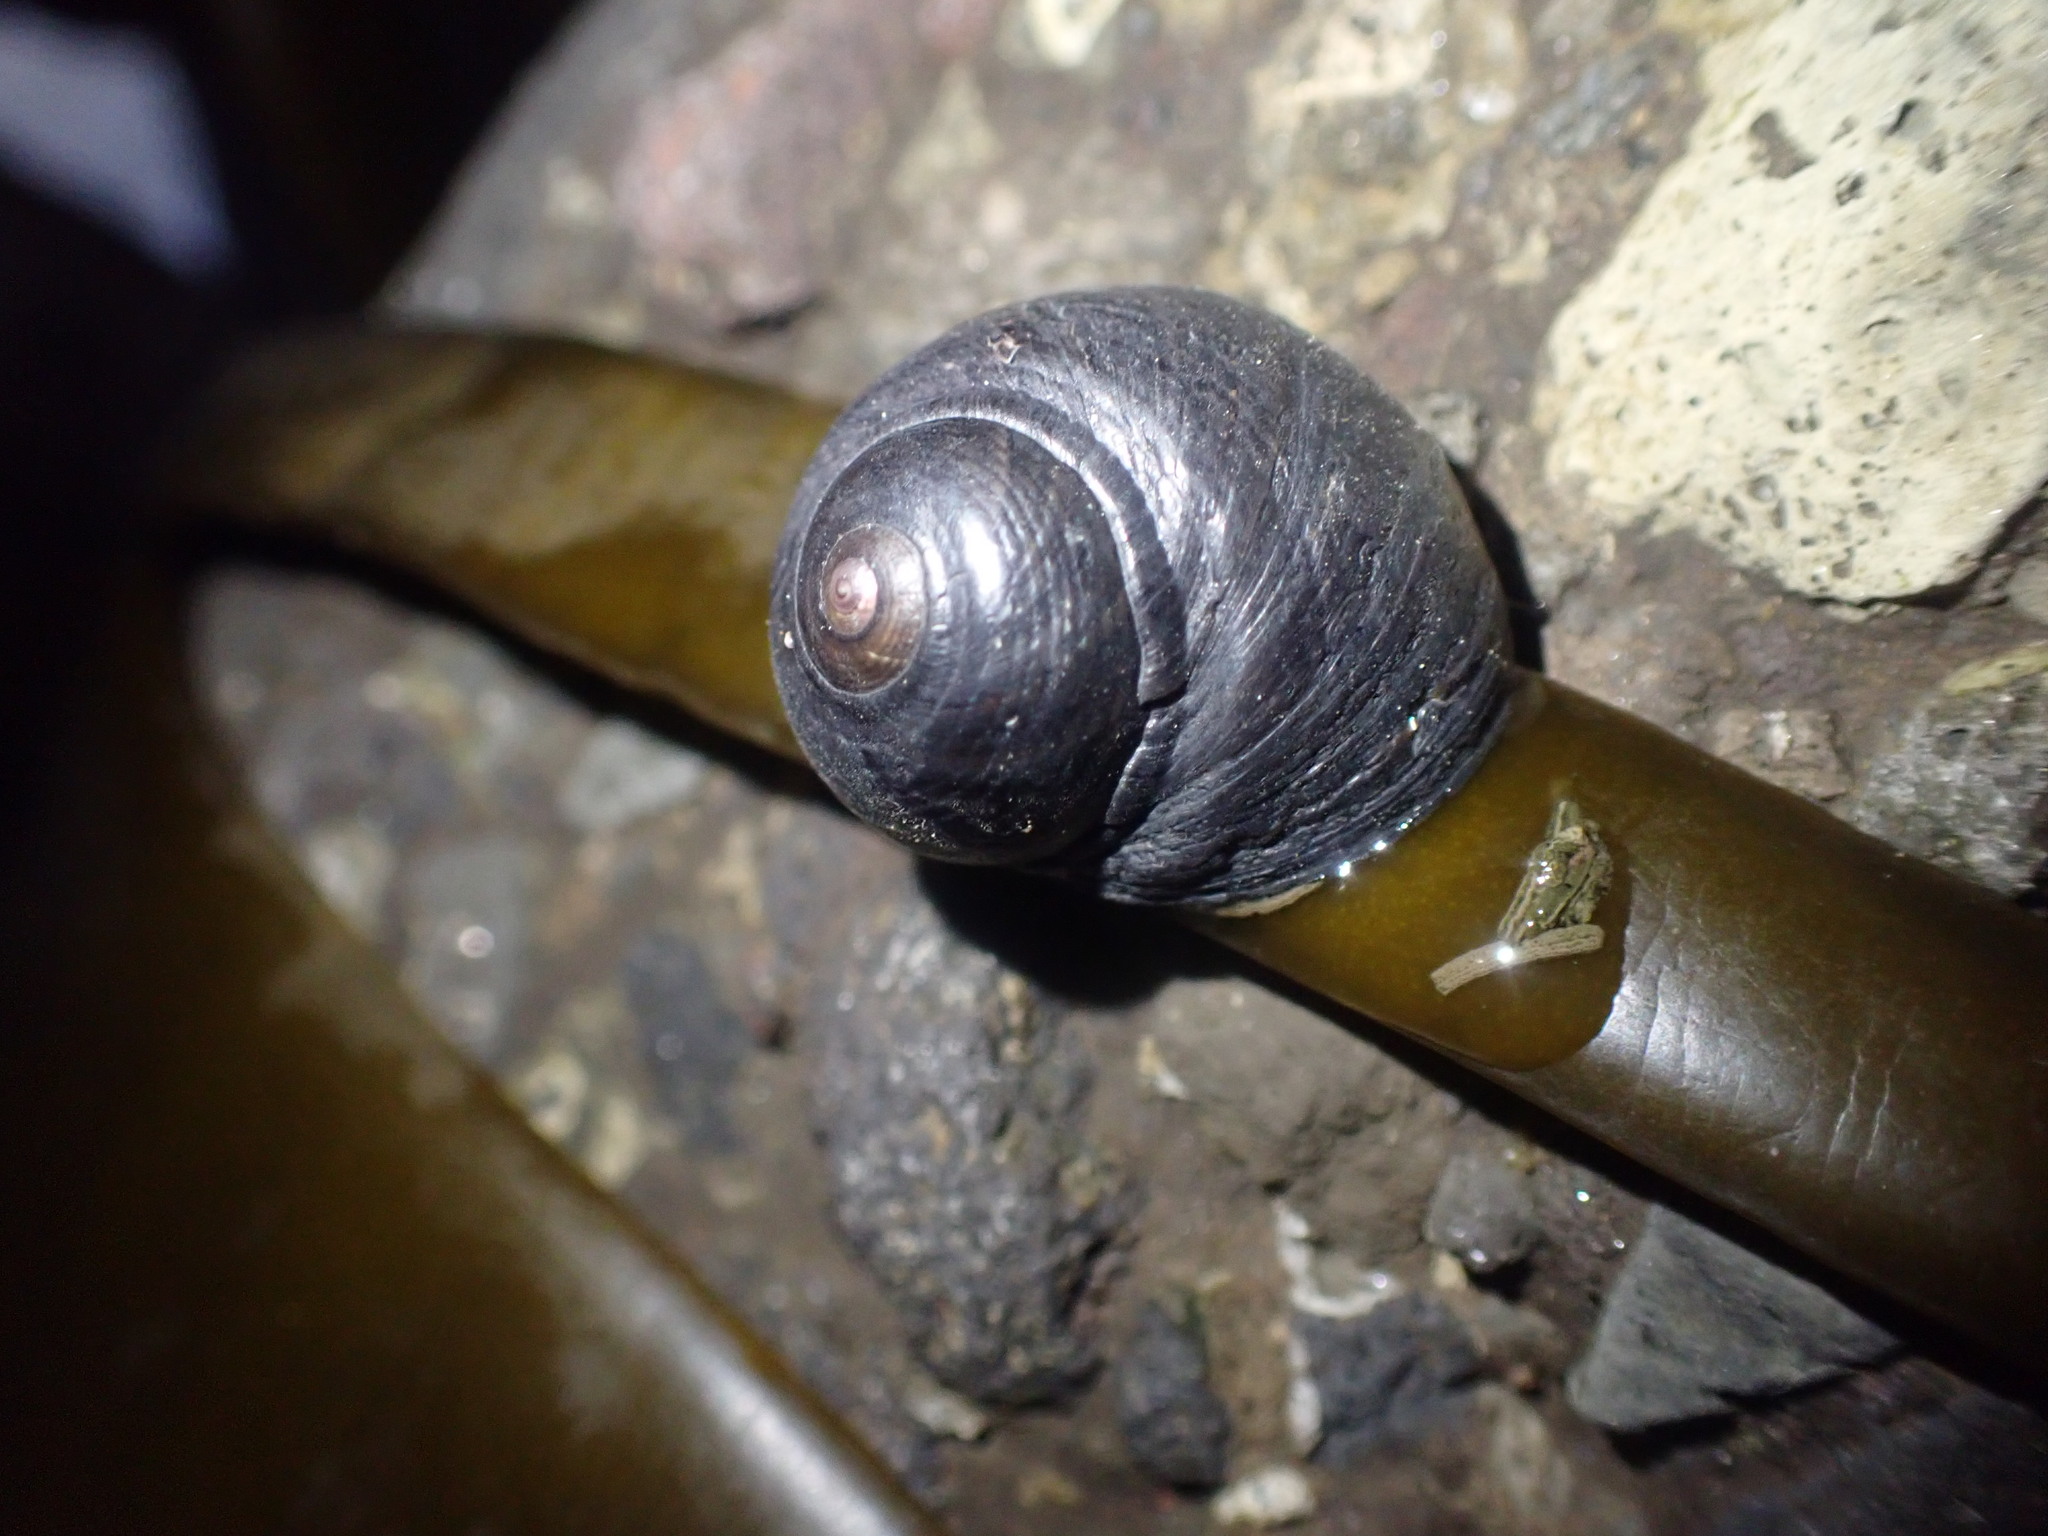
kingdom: Animalia
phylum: Mollusca
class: Gastropoda
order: Trochida
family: Trochidae
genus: Diloma
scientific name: Diloma nigerrimum
